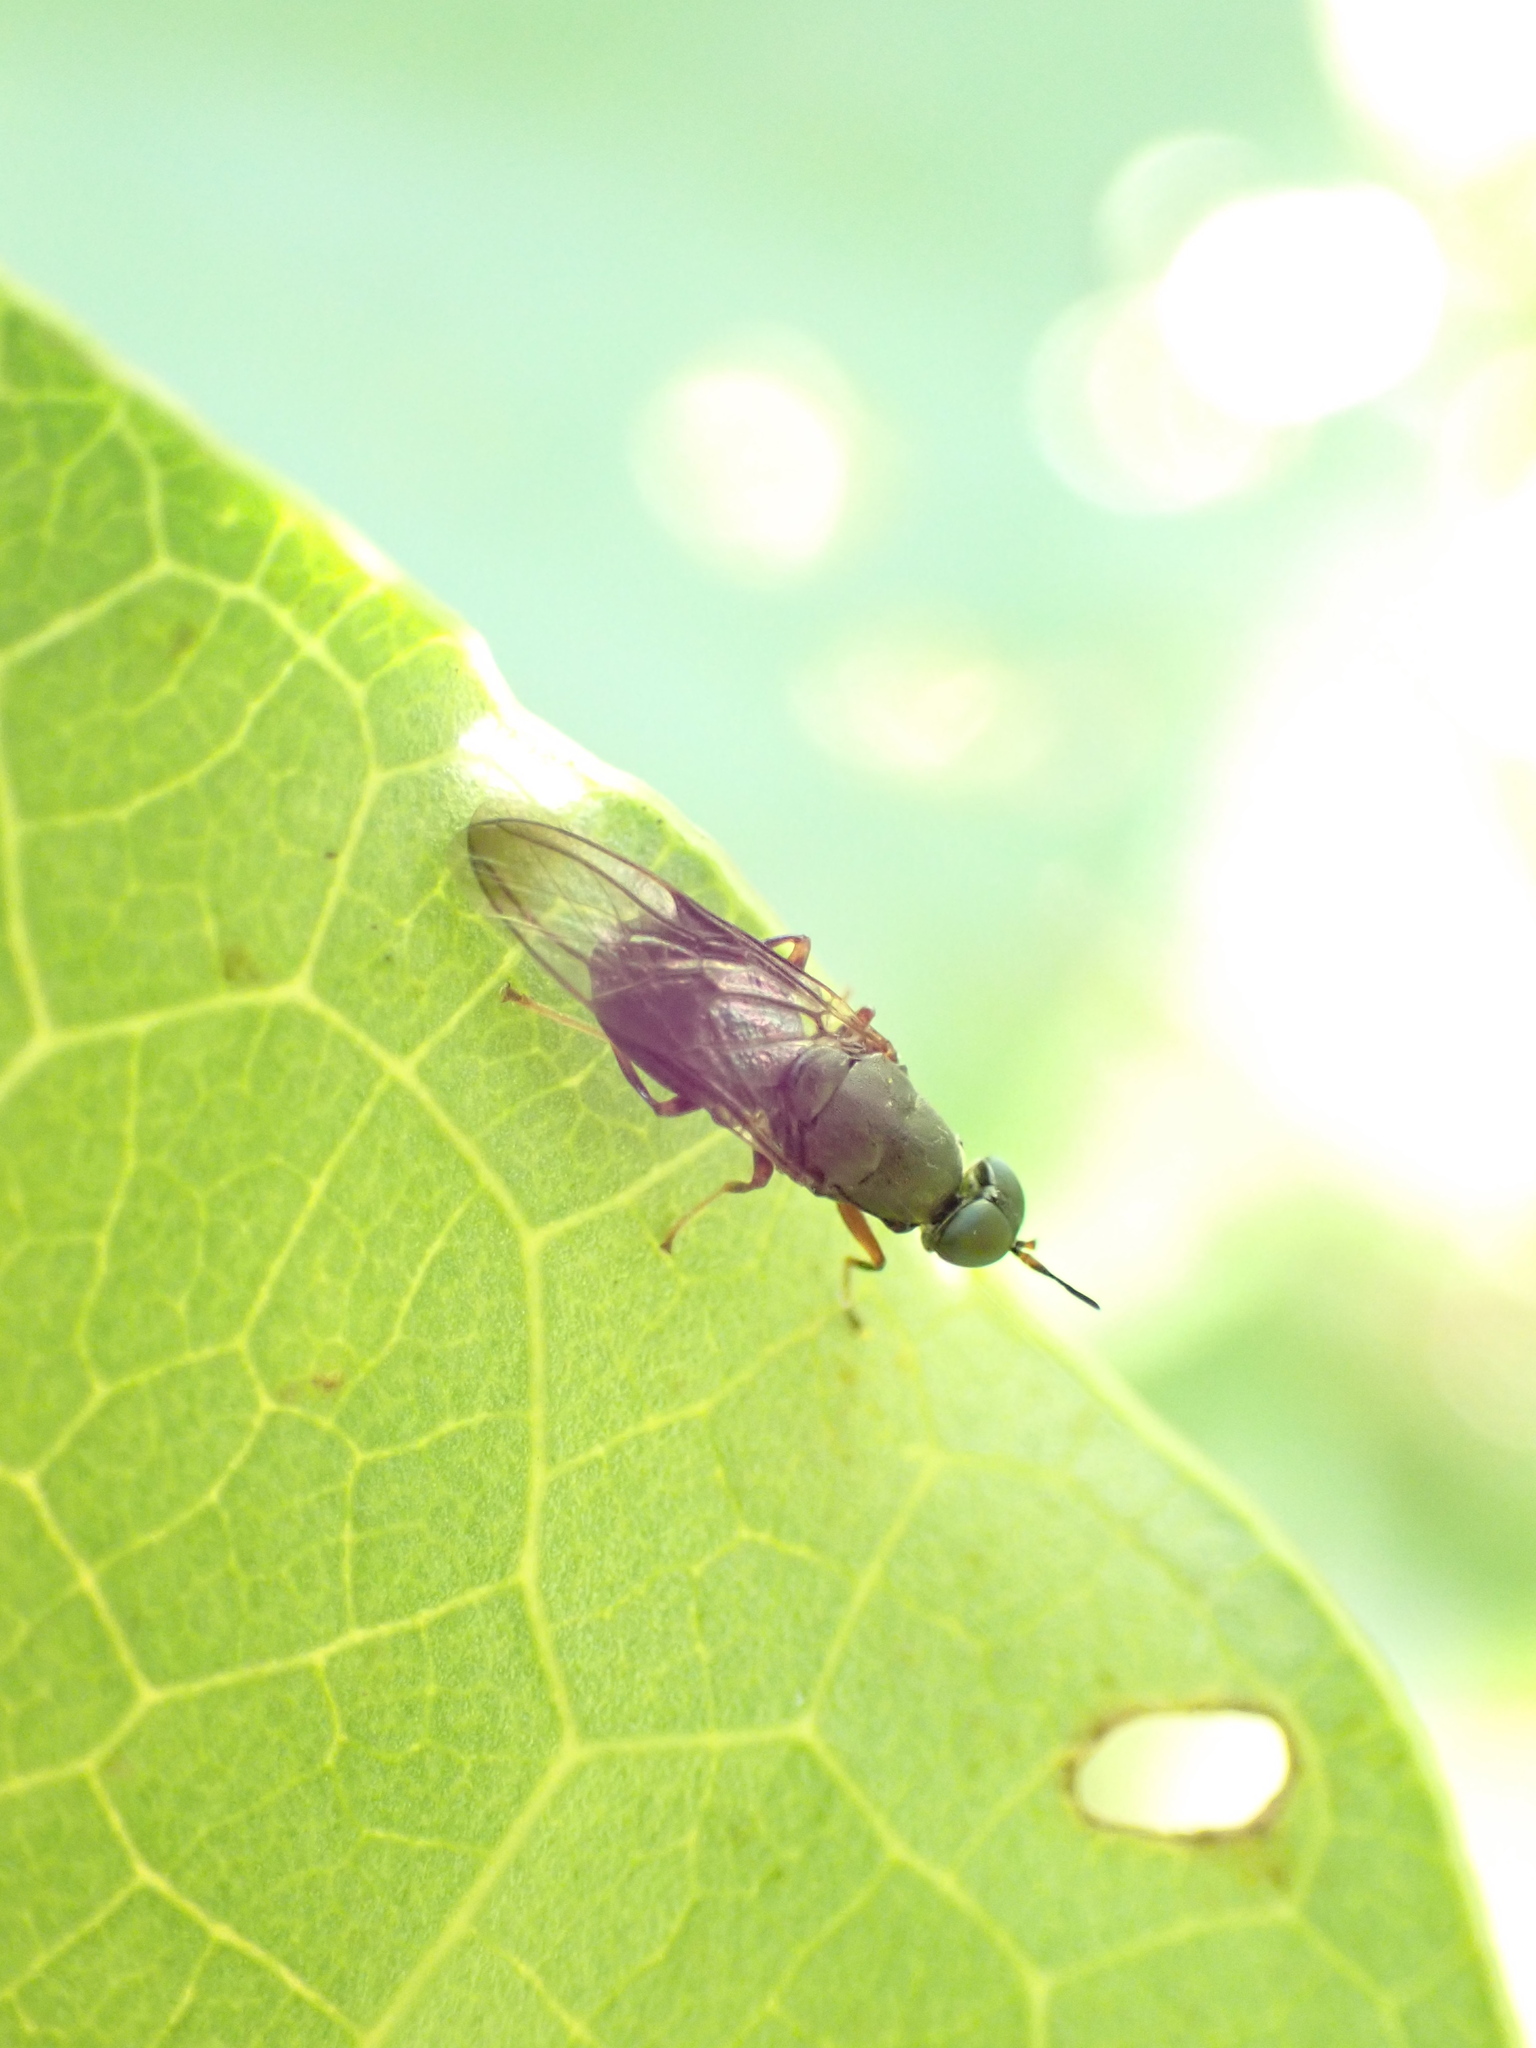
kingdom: Animalia
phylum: Arthropoda
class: Insecta
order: Diptera
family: Stratiomyidae
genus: Dysbiota
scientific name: Dysbiota peregrina
